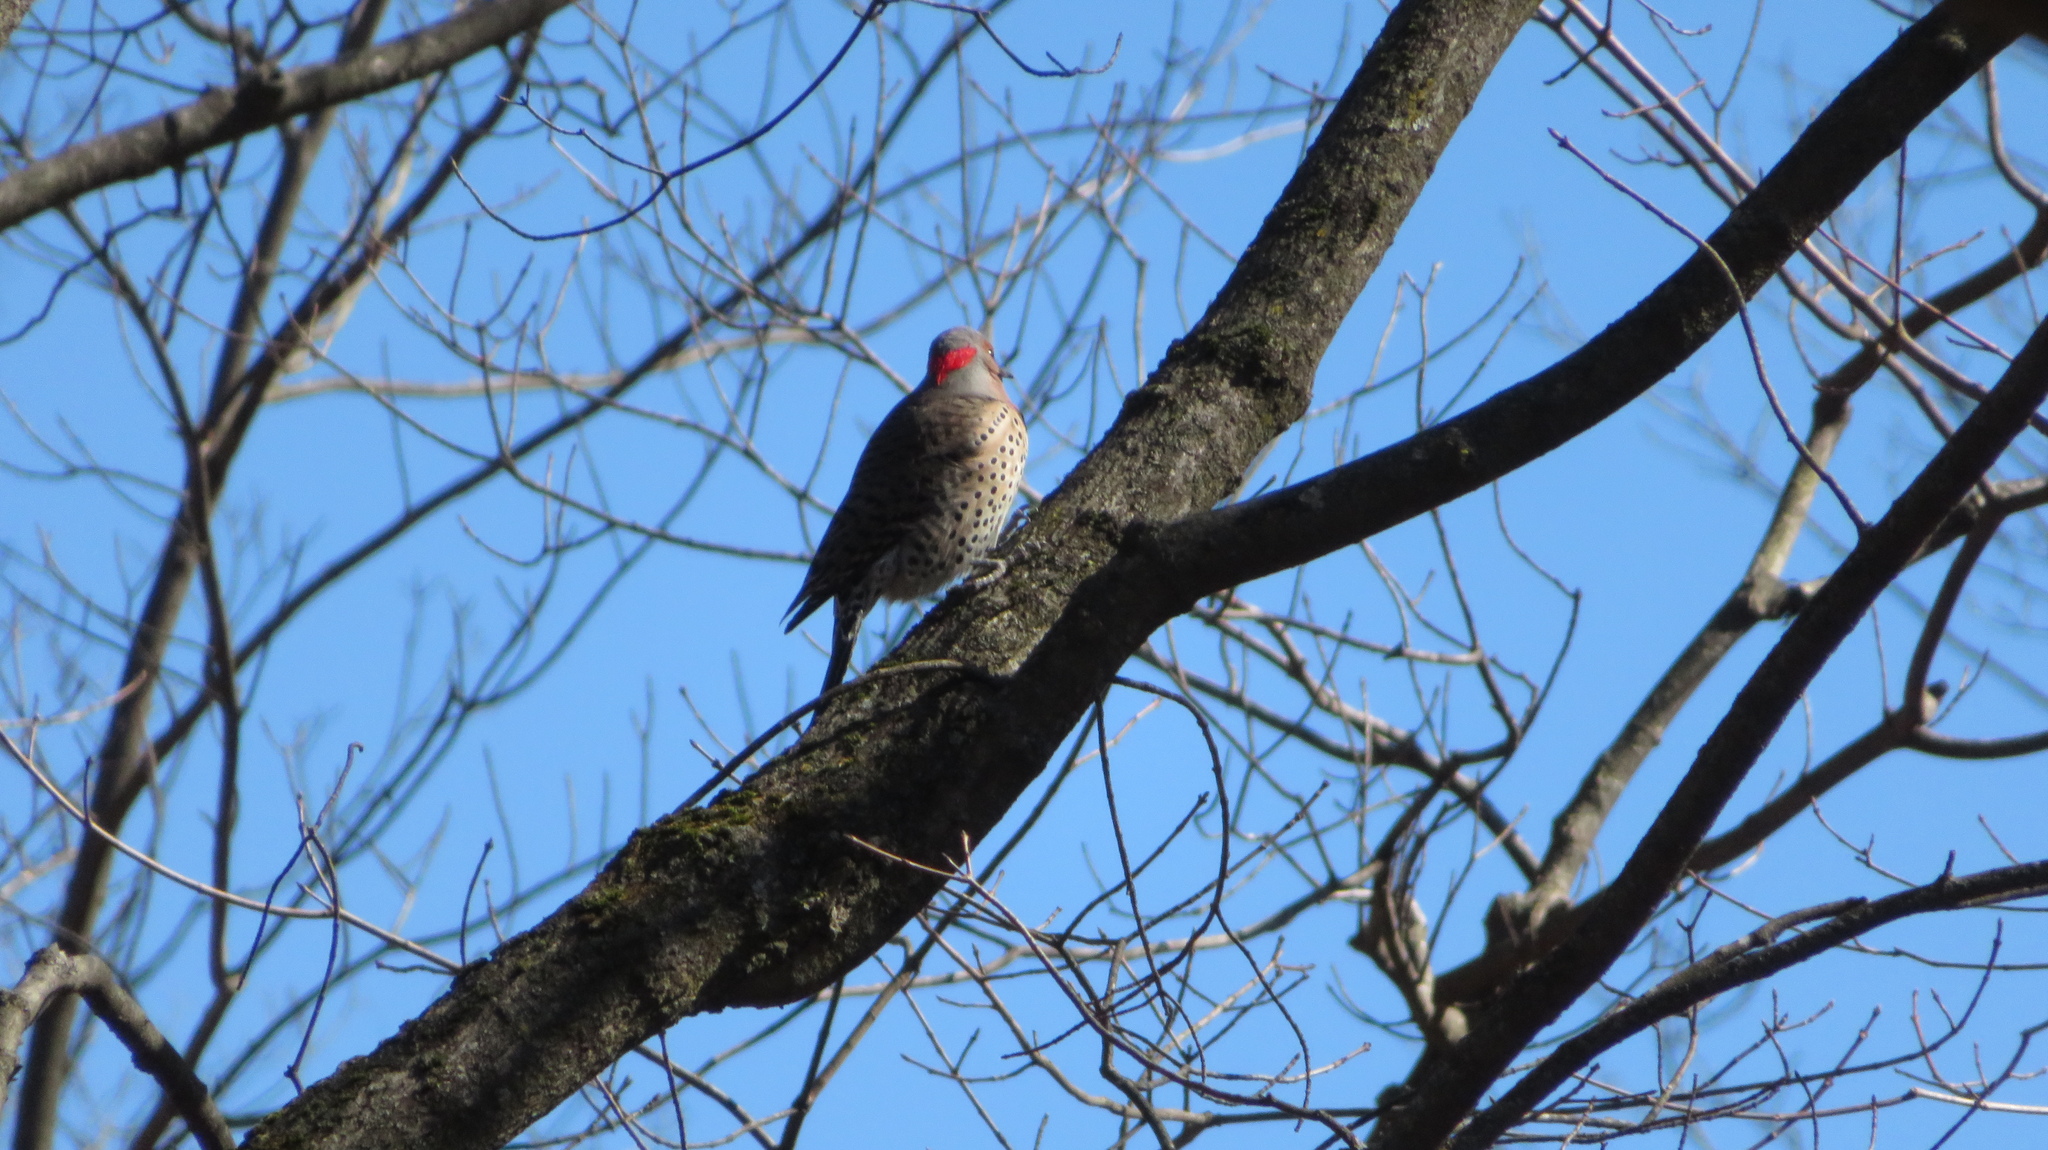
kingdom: Animalia
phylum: Chordata
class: Aves
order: Piciformes
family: Picidae
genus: Colaptes
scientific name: Colaptes auratus
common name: Northern flicker
